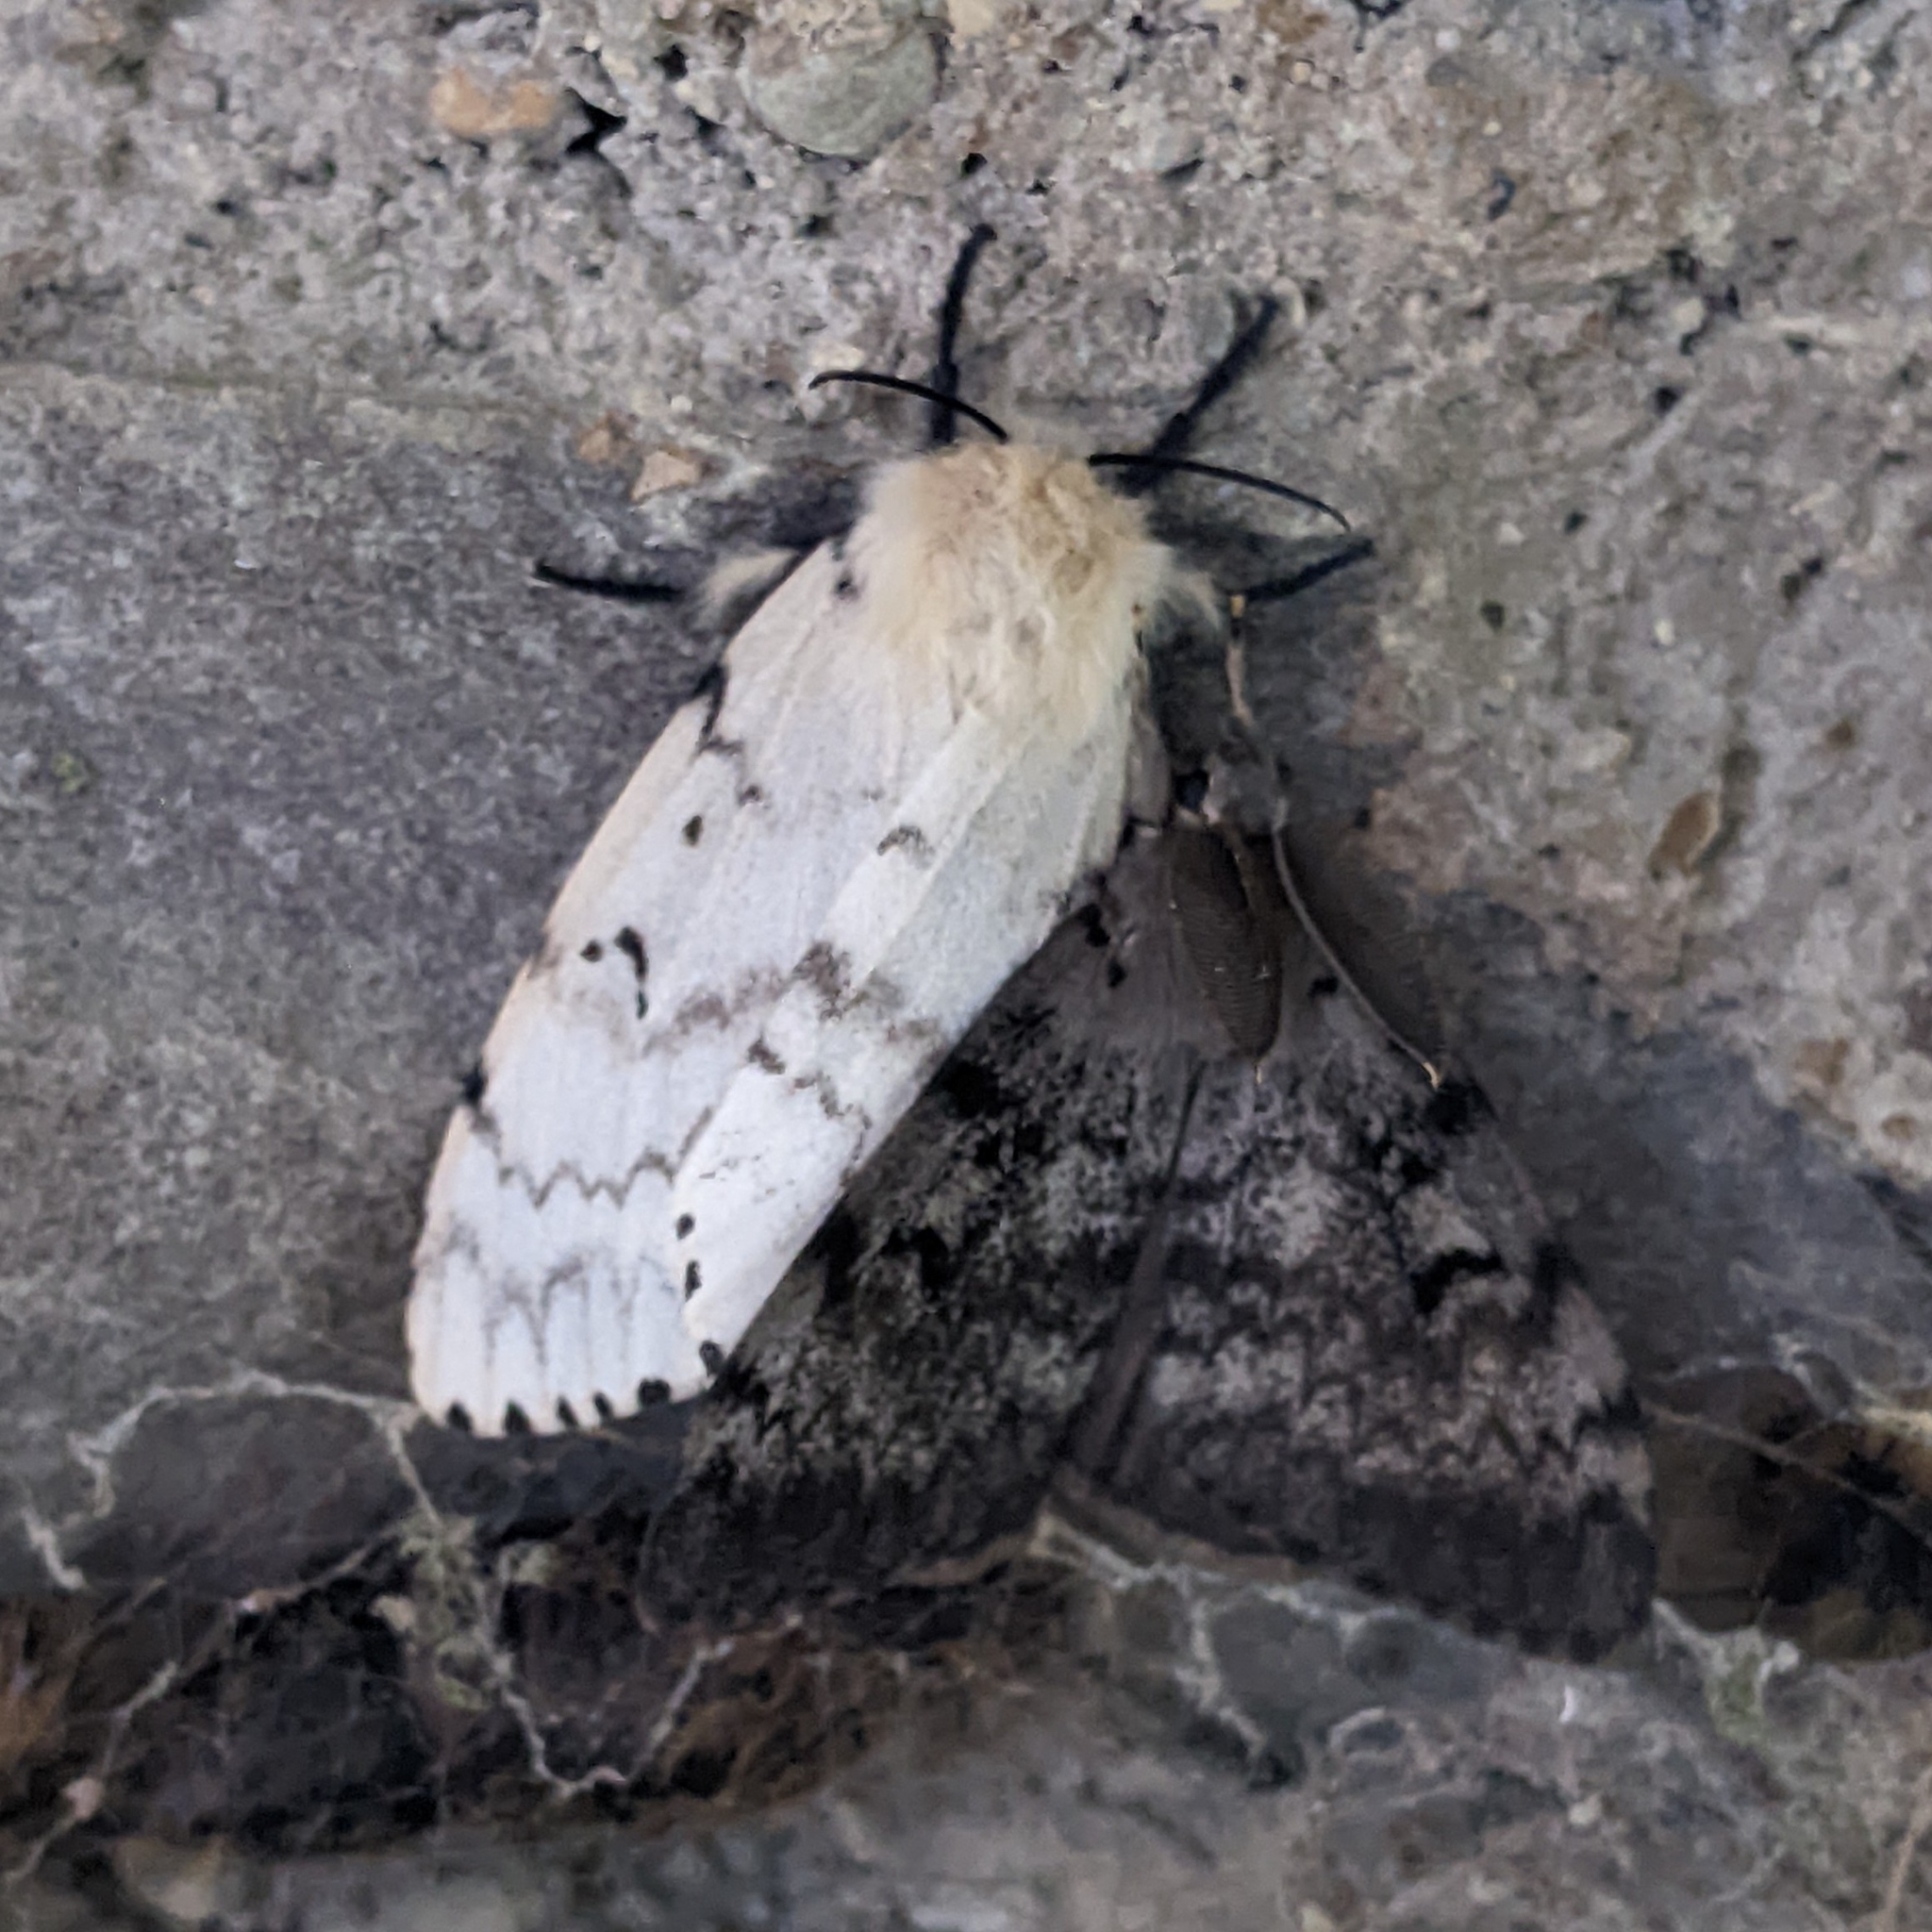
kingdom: Animalia
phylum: Arthropoda
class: Insecta
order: Lepidoptera
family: Erebidae
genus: Lymantria
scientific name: Lymantria dispar
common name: Gypsy moth
